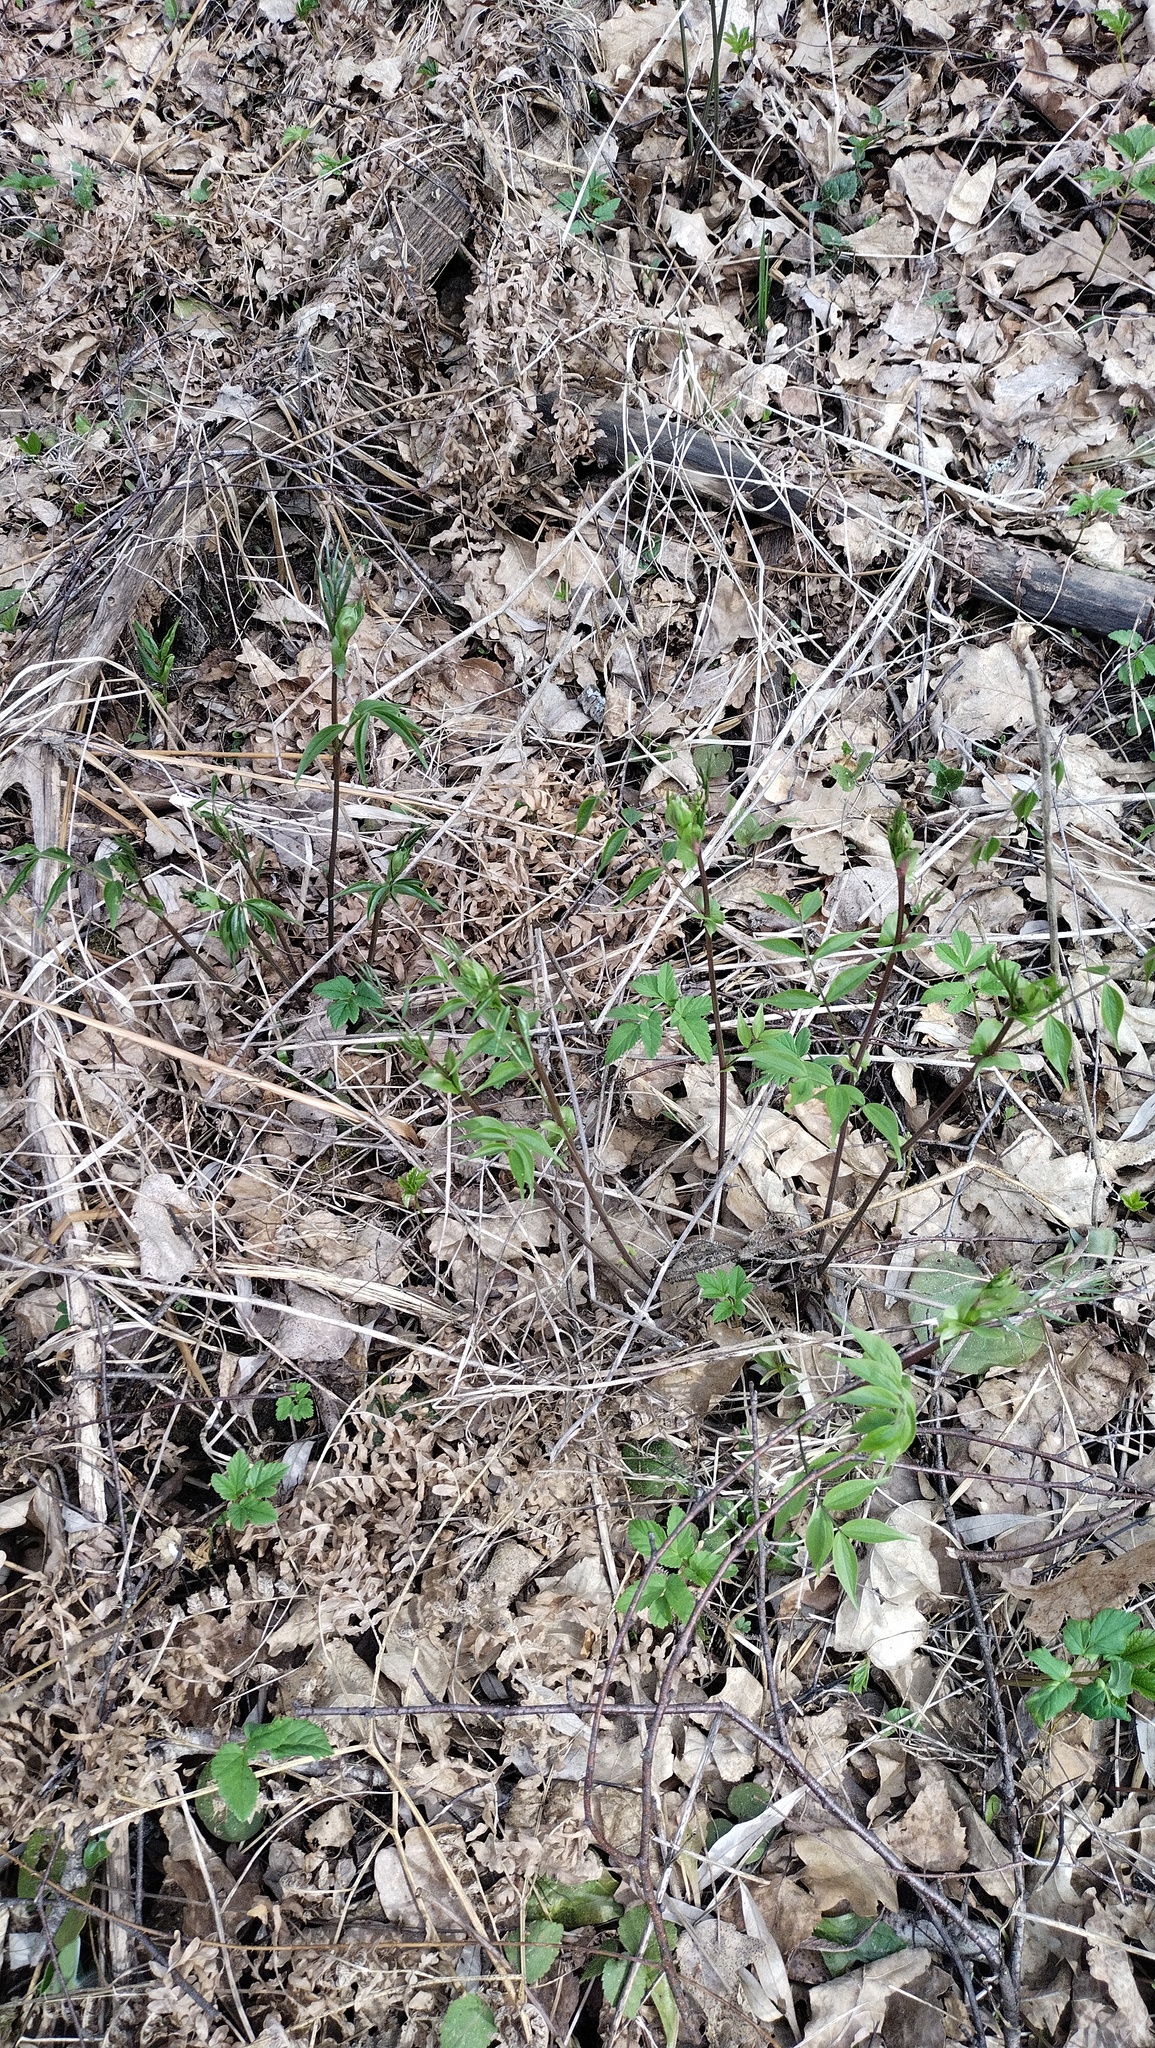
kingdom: Plantae
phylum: Tracheophyta
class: Magnoliopsida
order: Fabales
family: Fabaceae
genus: Lathyrus
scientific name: Lathyrus vernus
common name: Spring pea
